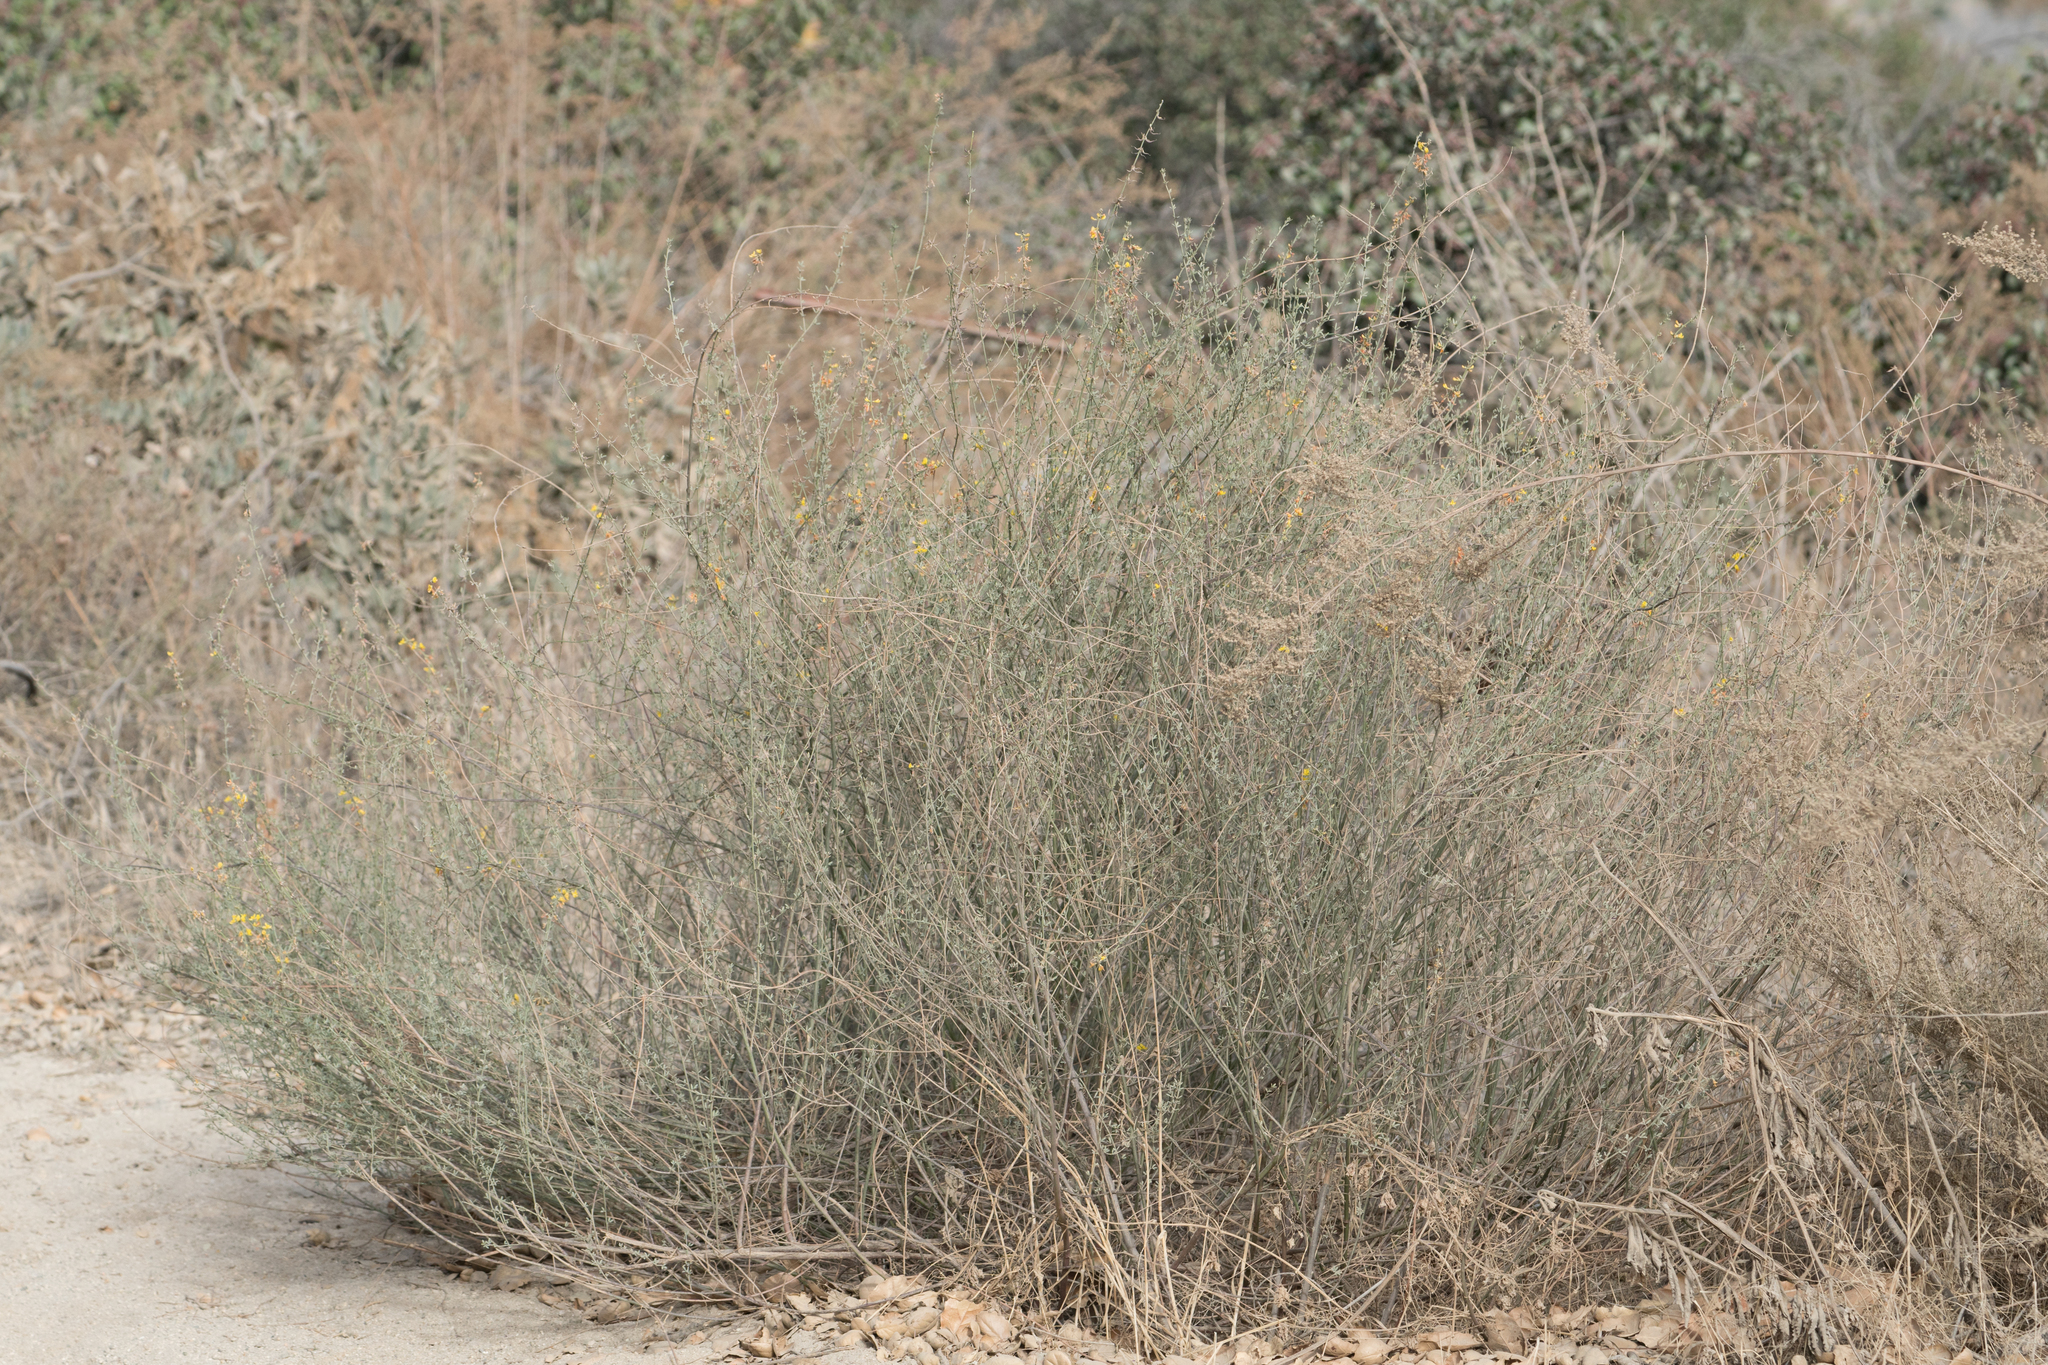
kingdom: Plantae
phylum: Tracheophyta
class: Magnoliopsida
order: Fabales
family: Fabaceae
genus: Acmispon
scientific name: Acmispon glaber
